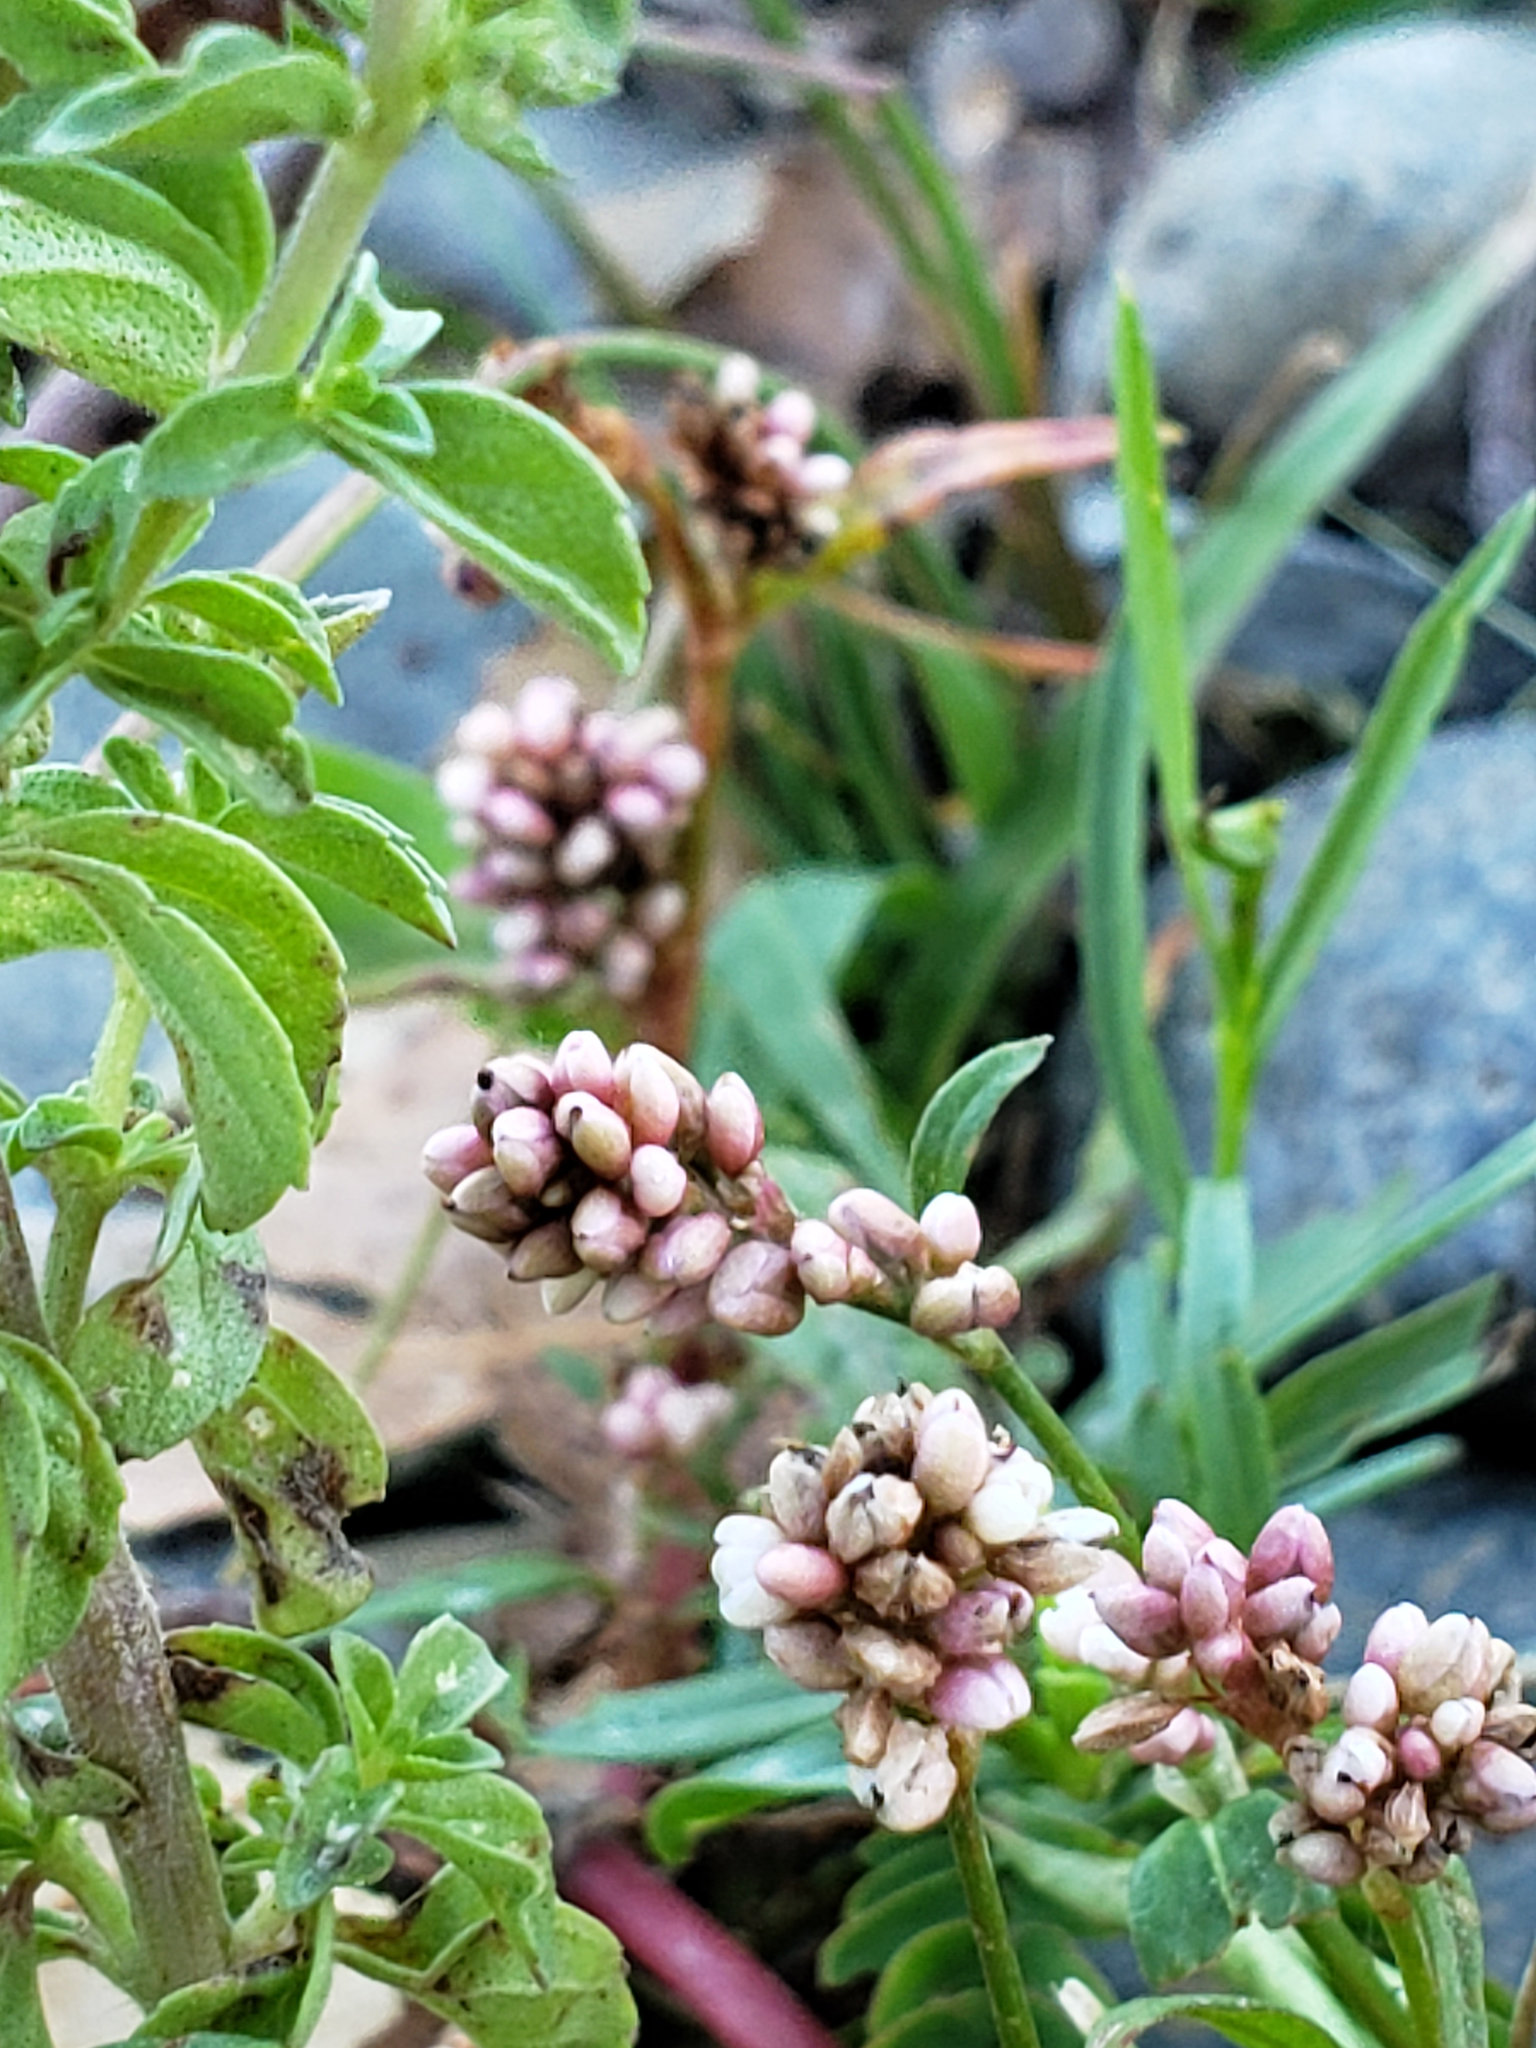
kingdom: Plantae
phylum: Tracheophyta
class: Magnoliopsida
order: Caryophyllales
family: Polygonaceae
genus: Persicaria
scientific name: Persicaria maculosa
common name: Redshank
